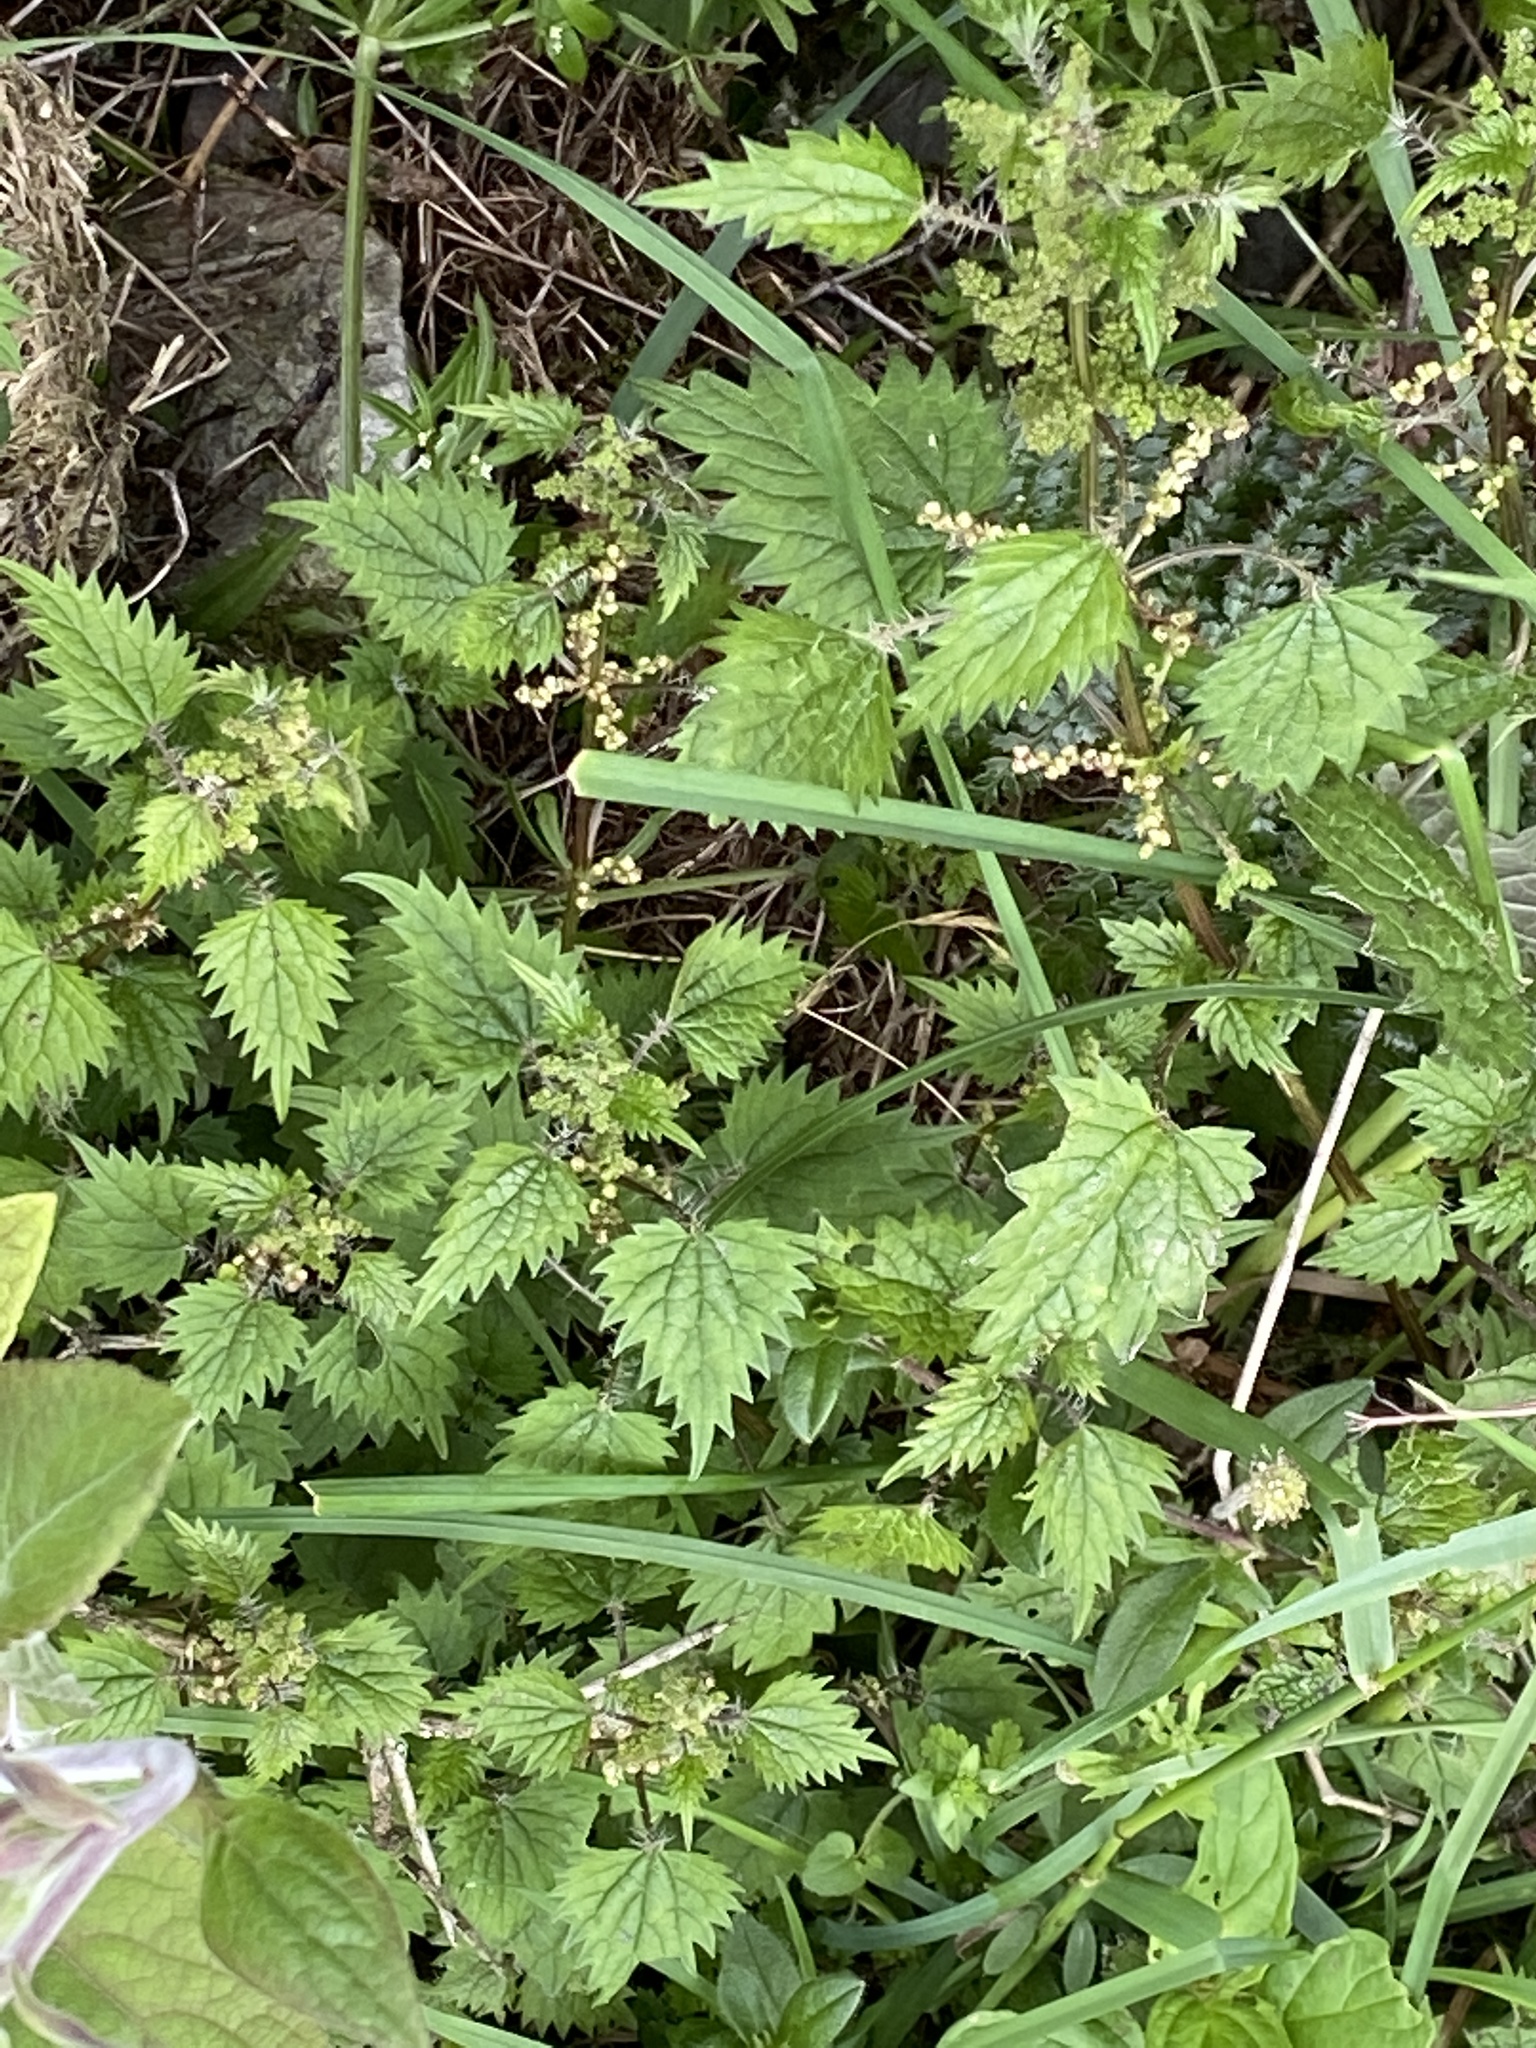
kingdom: Plantae
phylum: Tracheophyta
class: Magnoliopsida
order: Rosales
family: Urticaceae
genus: Urtica
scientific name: Urtica sykesii
